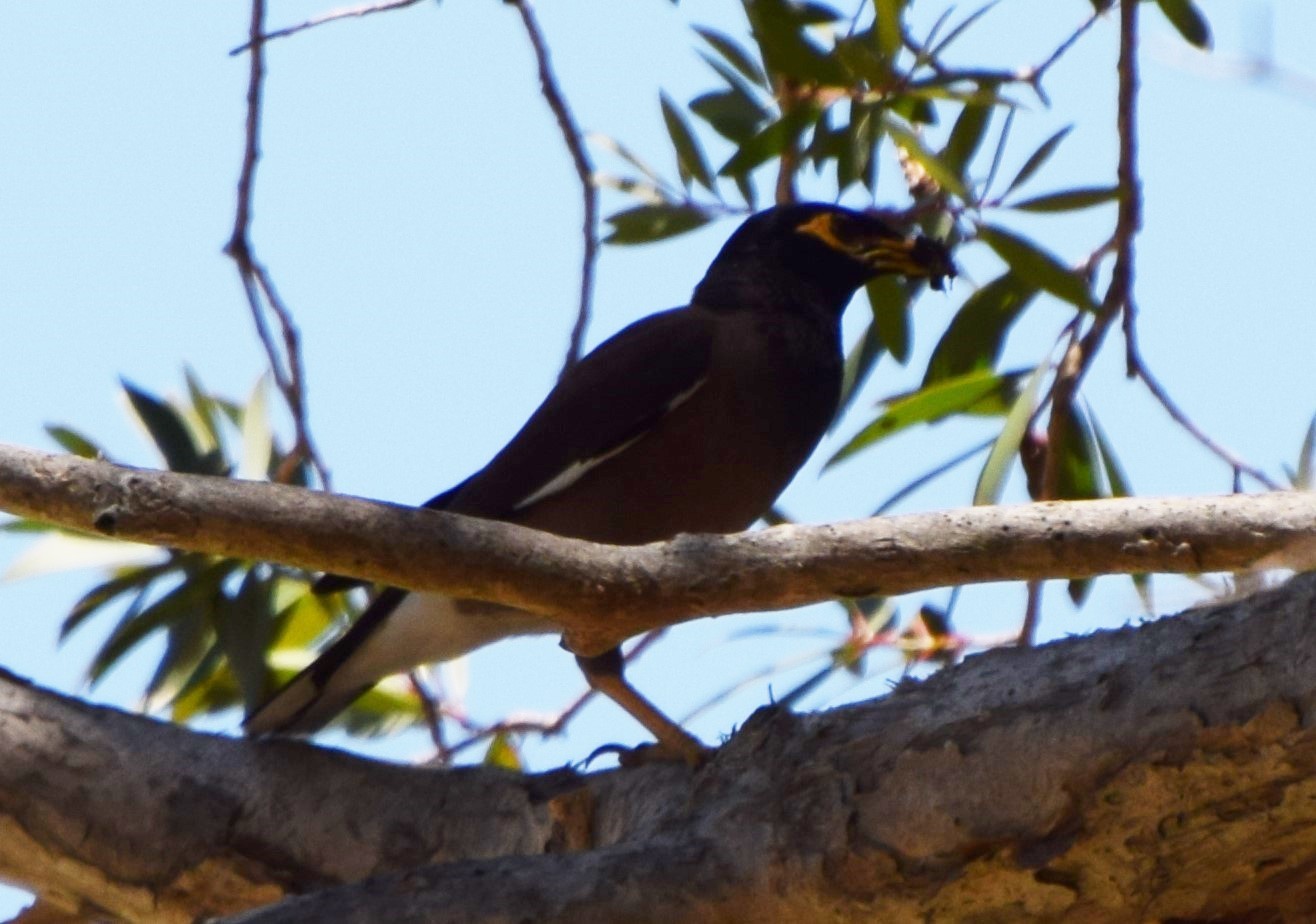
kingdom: Animalia
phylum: Chordata
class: Aves
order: Passeriformes
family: Sturnidae
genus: Acridotheres
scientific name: Acridotheres tristis
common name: Common myna
